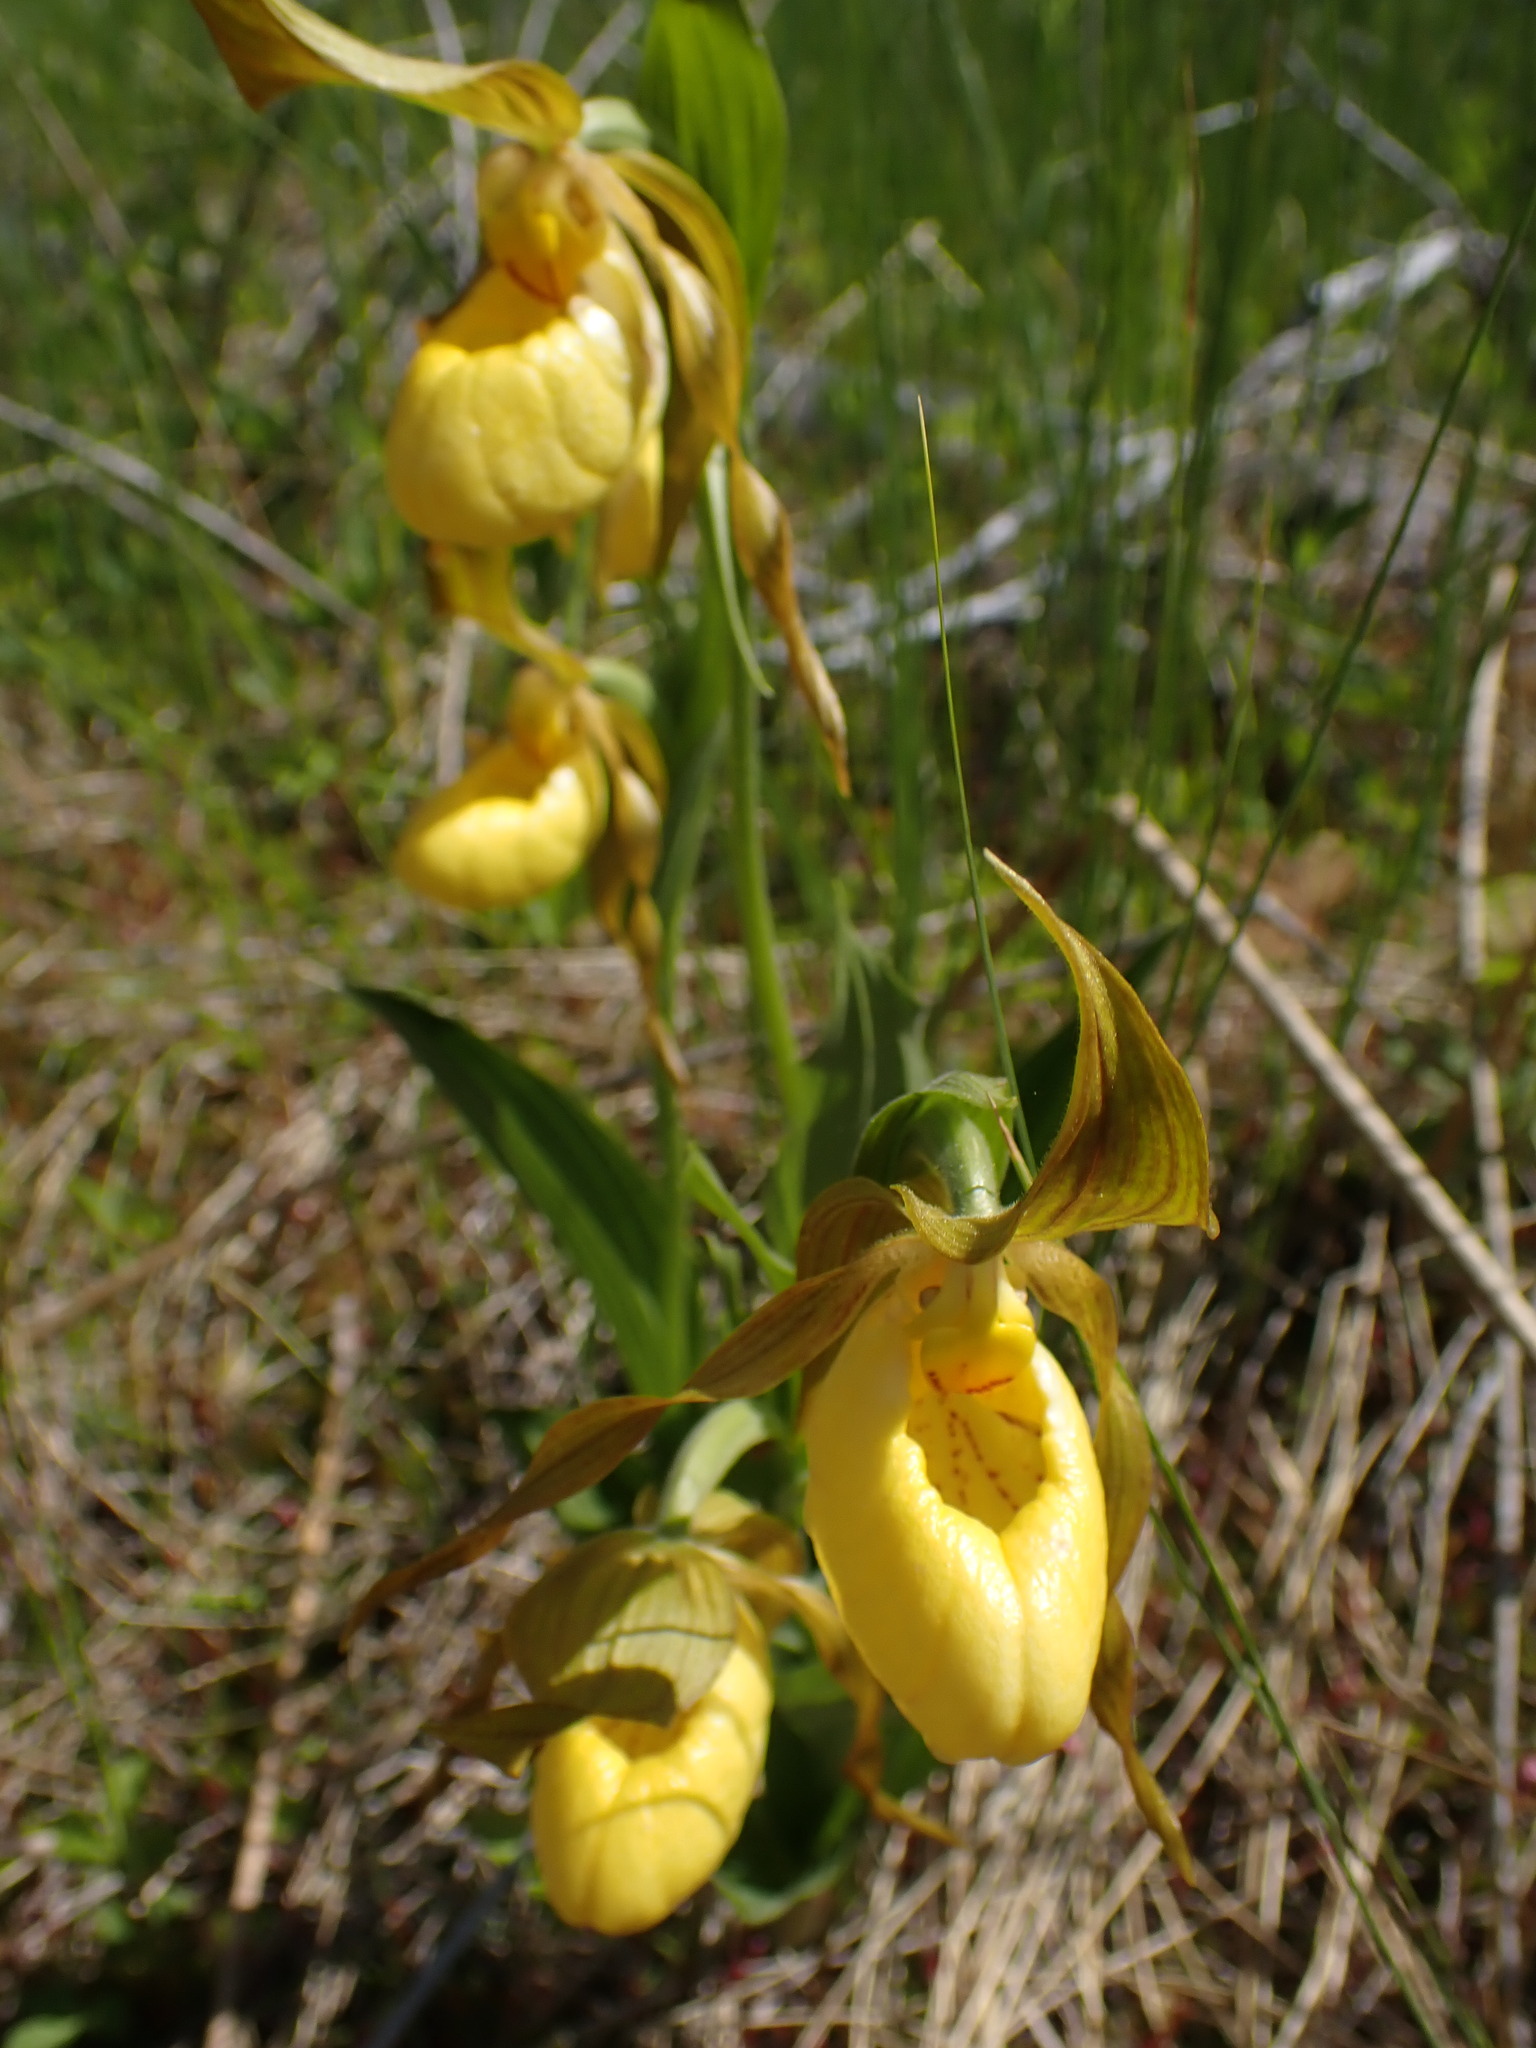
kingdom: Plantae
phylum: Tracheophyta
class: Liliopsida
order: Asparagales
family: Orchidaceae
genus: Cypripedium
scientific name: Cypripedium parviflorum
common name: American yellow lady's-slipper
